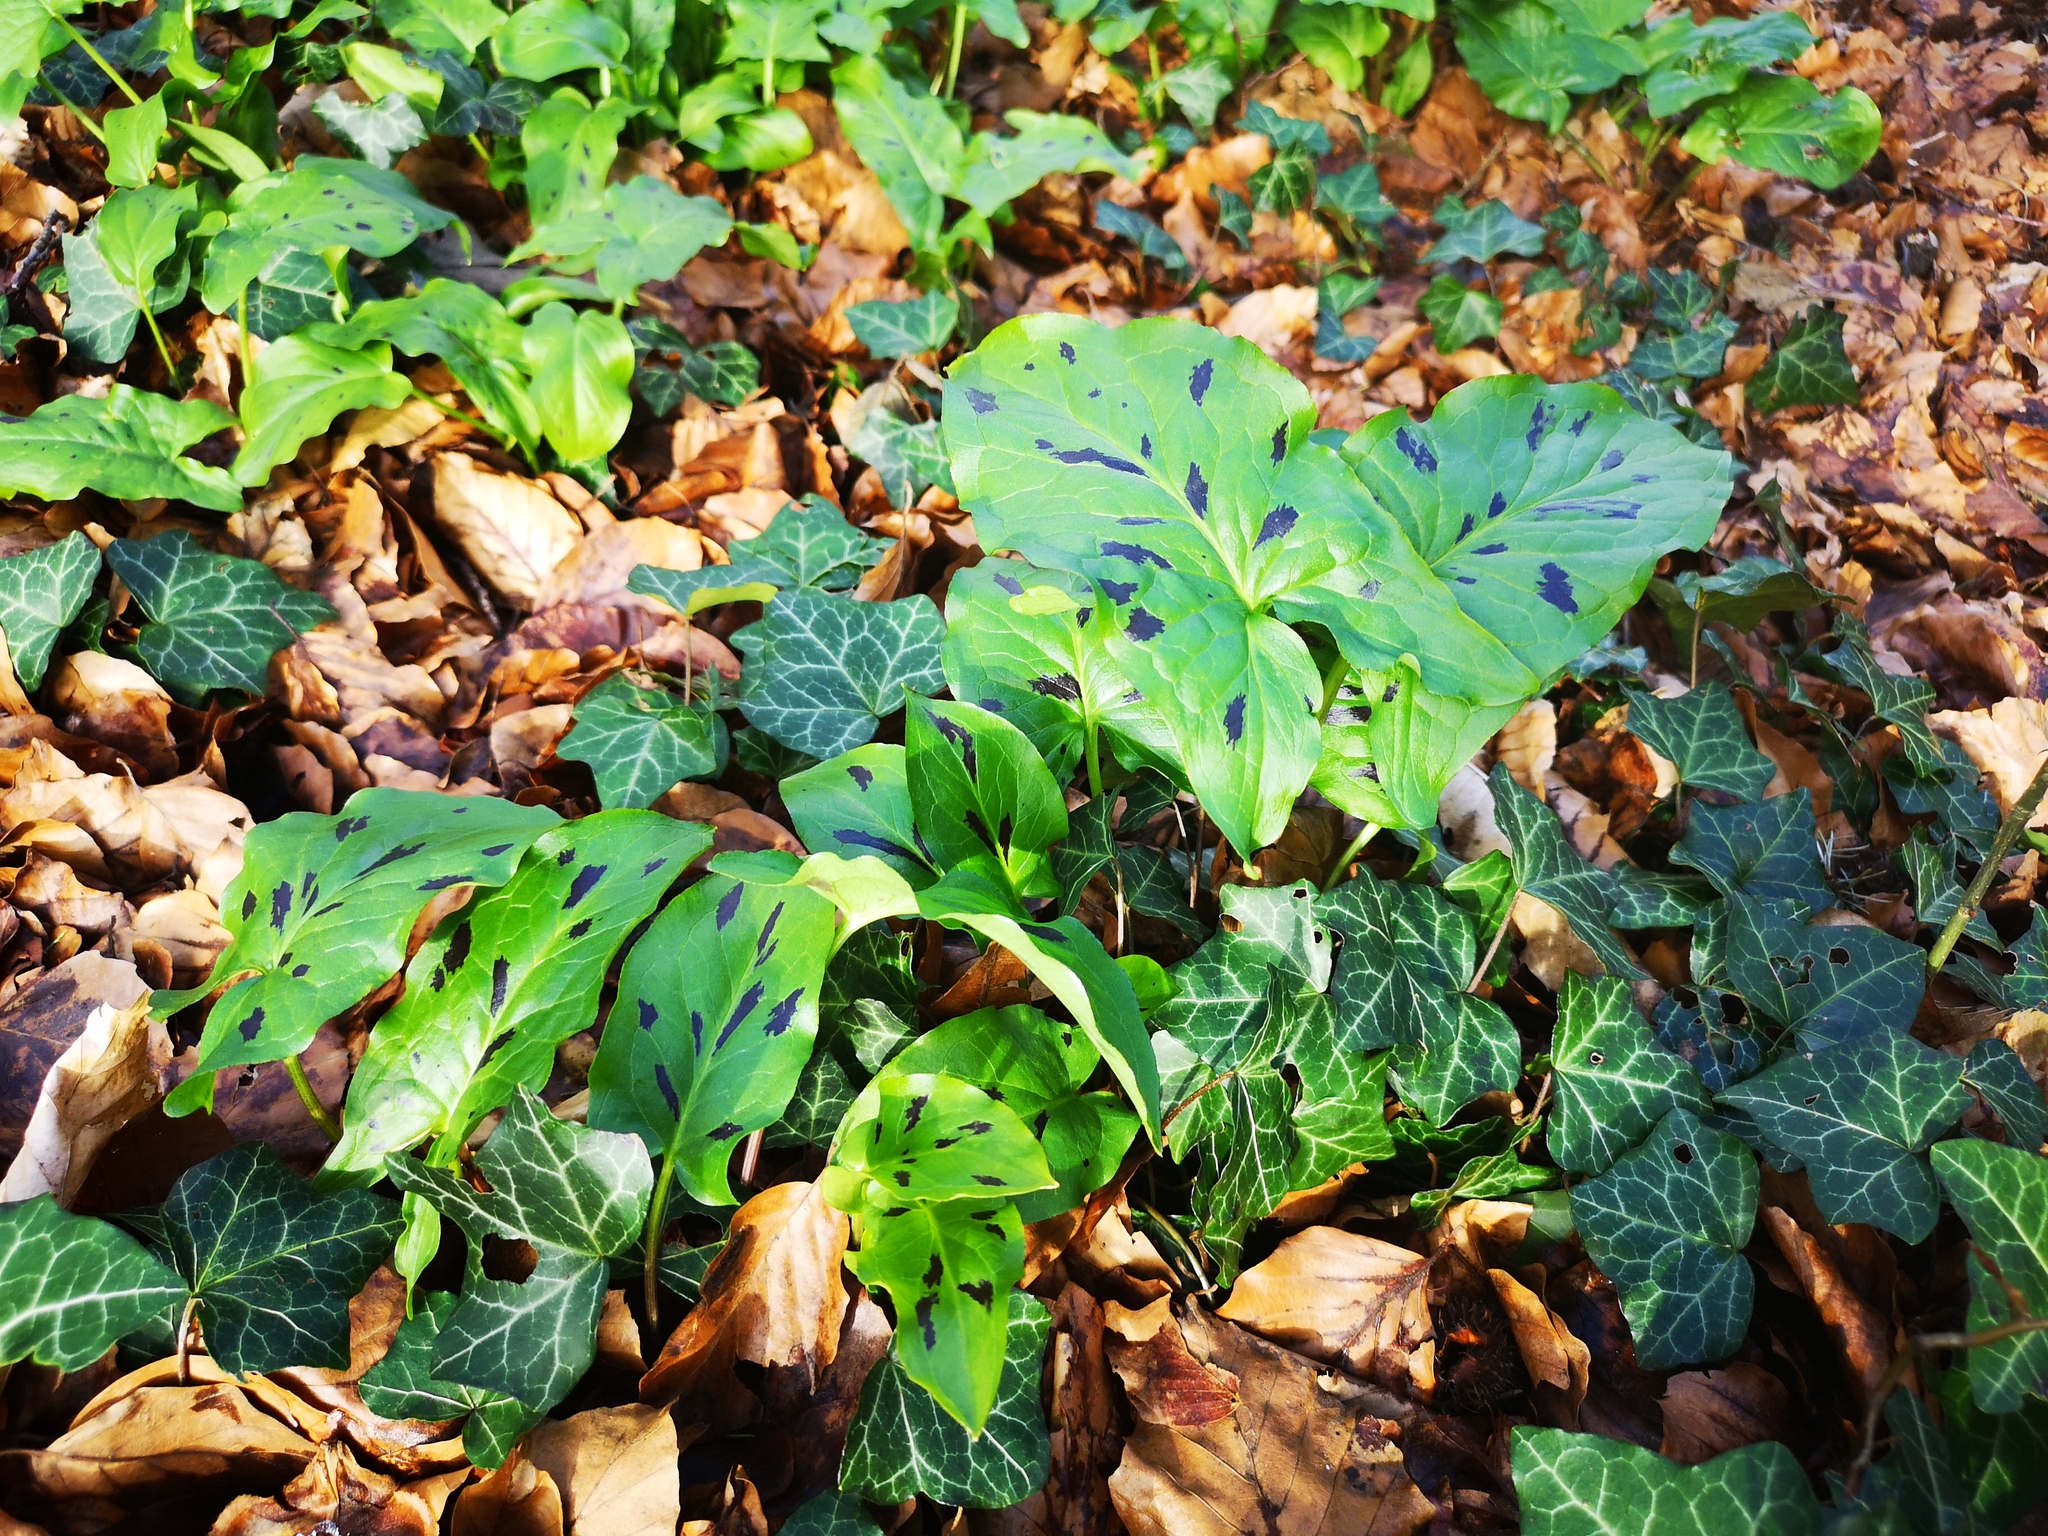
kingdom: Plantae
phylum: Tracheophyta
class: Liliopsida
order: Alismatales
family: Araceae
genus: Arum
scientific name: Arum maculatum
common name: Lords-and-ladies
